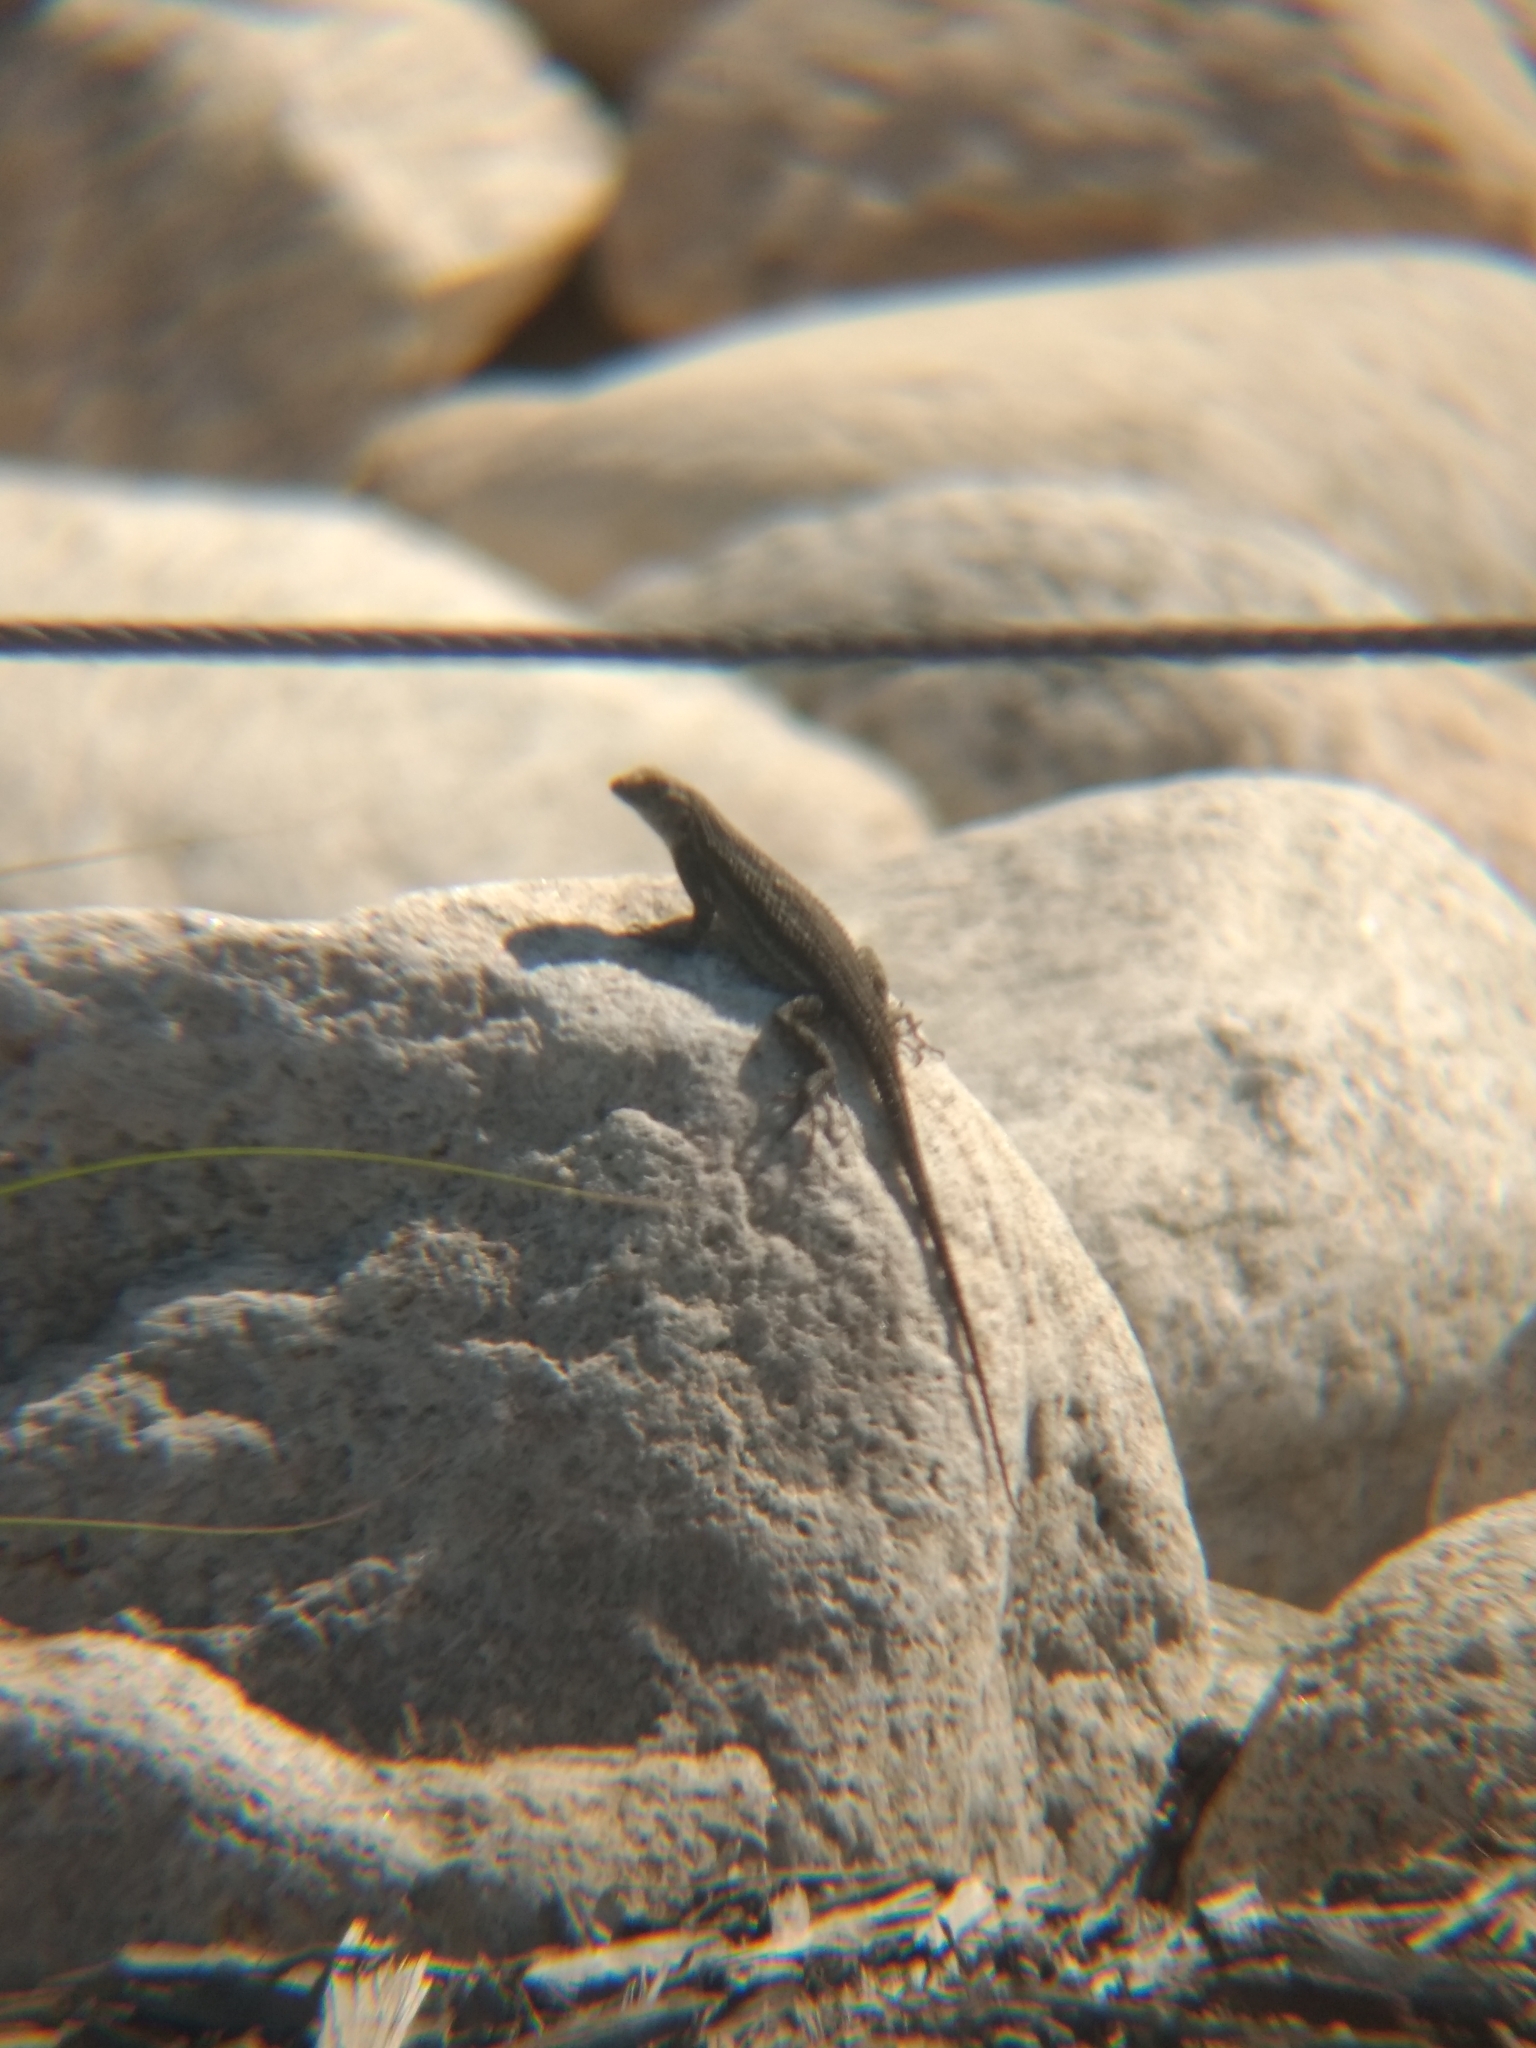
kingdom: Animalia
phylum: Chordata
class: Squamata
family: Phrynosomatidae
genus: Sceloporus
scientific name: Sceloporus occidentalis
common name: Western fence lizard
